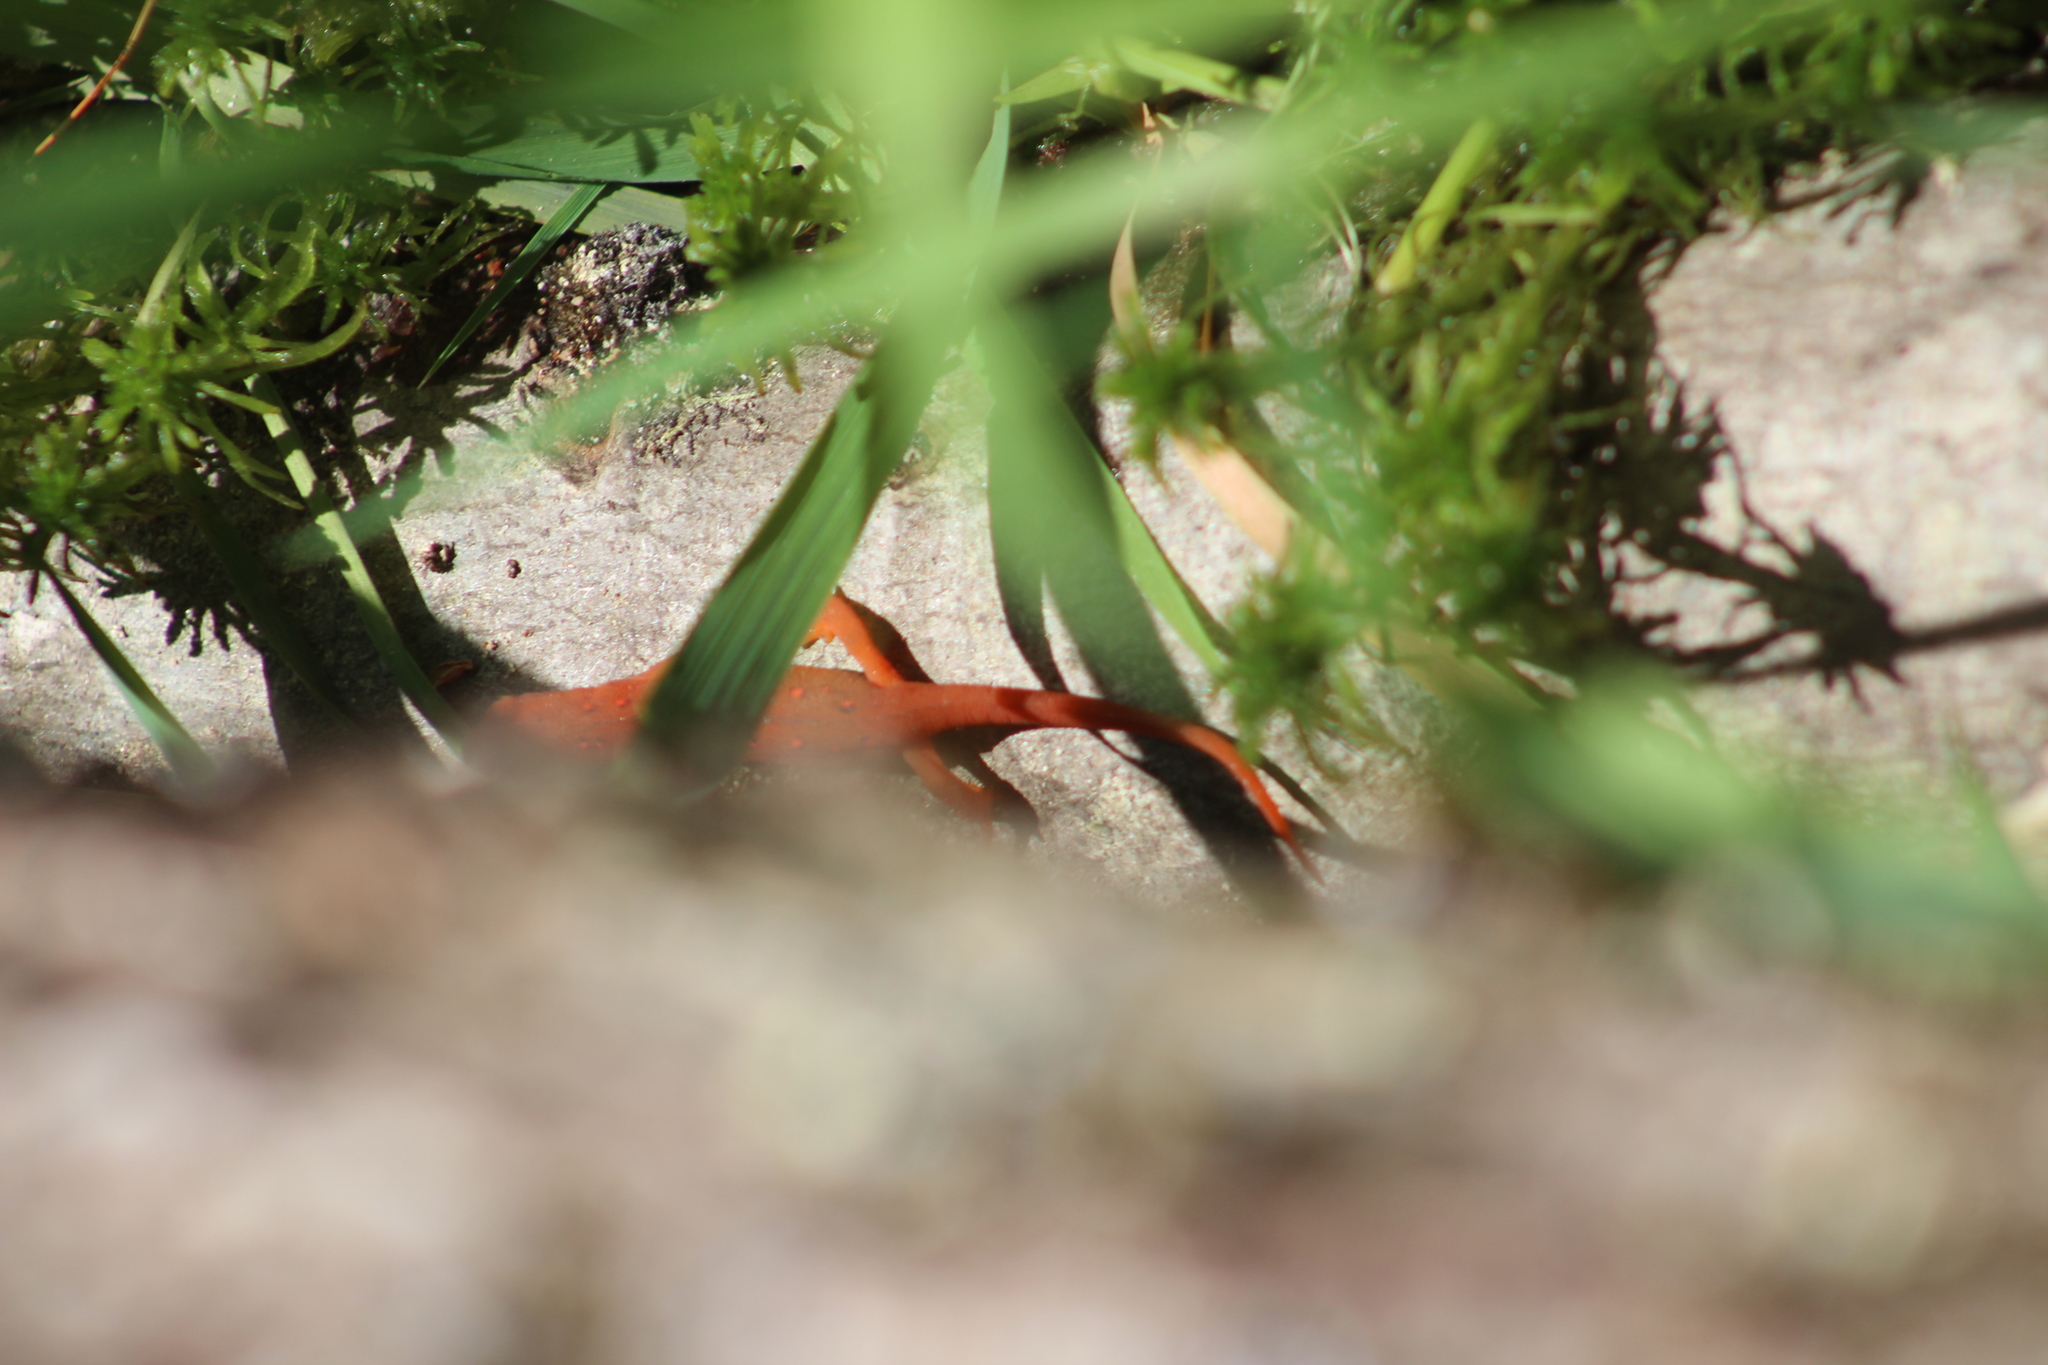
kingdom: Animalia
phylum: Chordata
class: Amphibia
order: Caudata
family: Salamandridae
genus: Notophthalmus
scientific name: Notophthalmus viridescens
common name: Eastern newt
